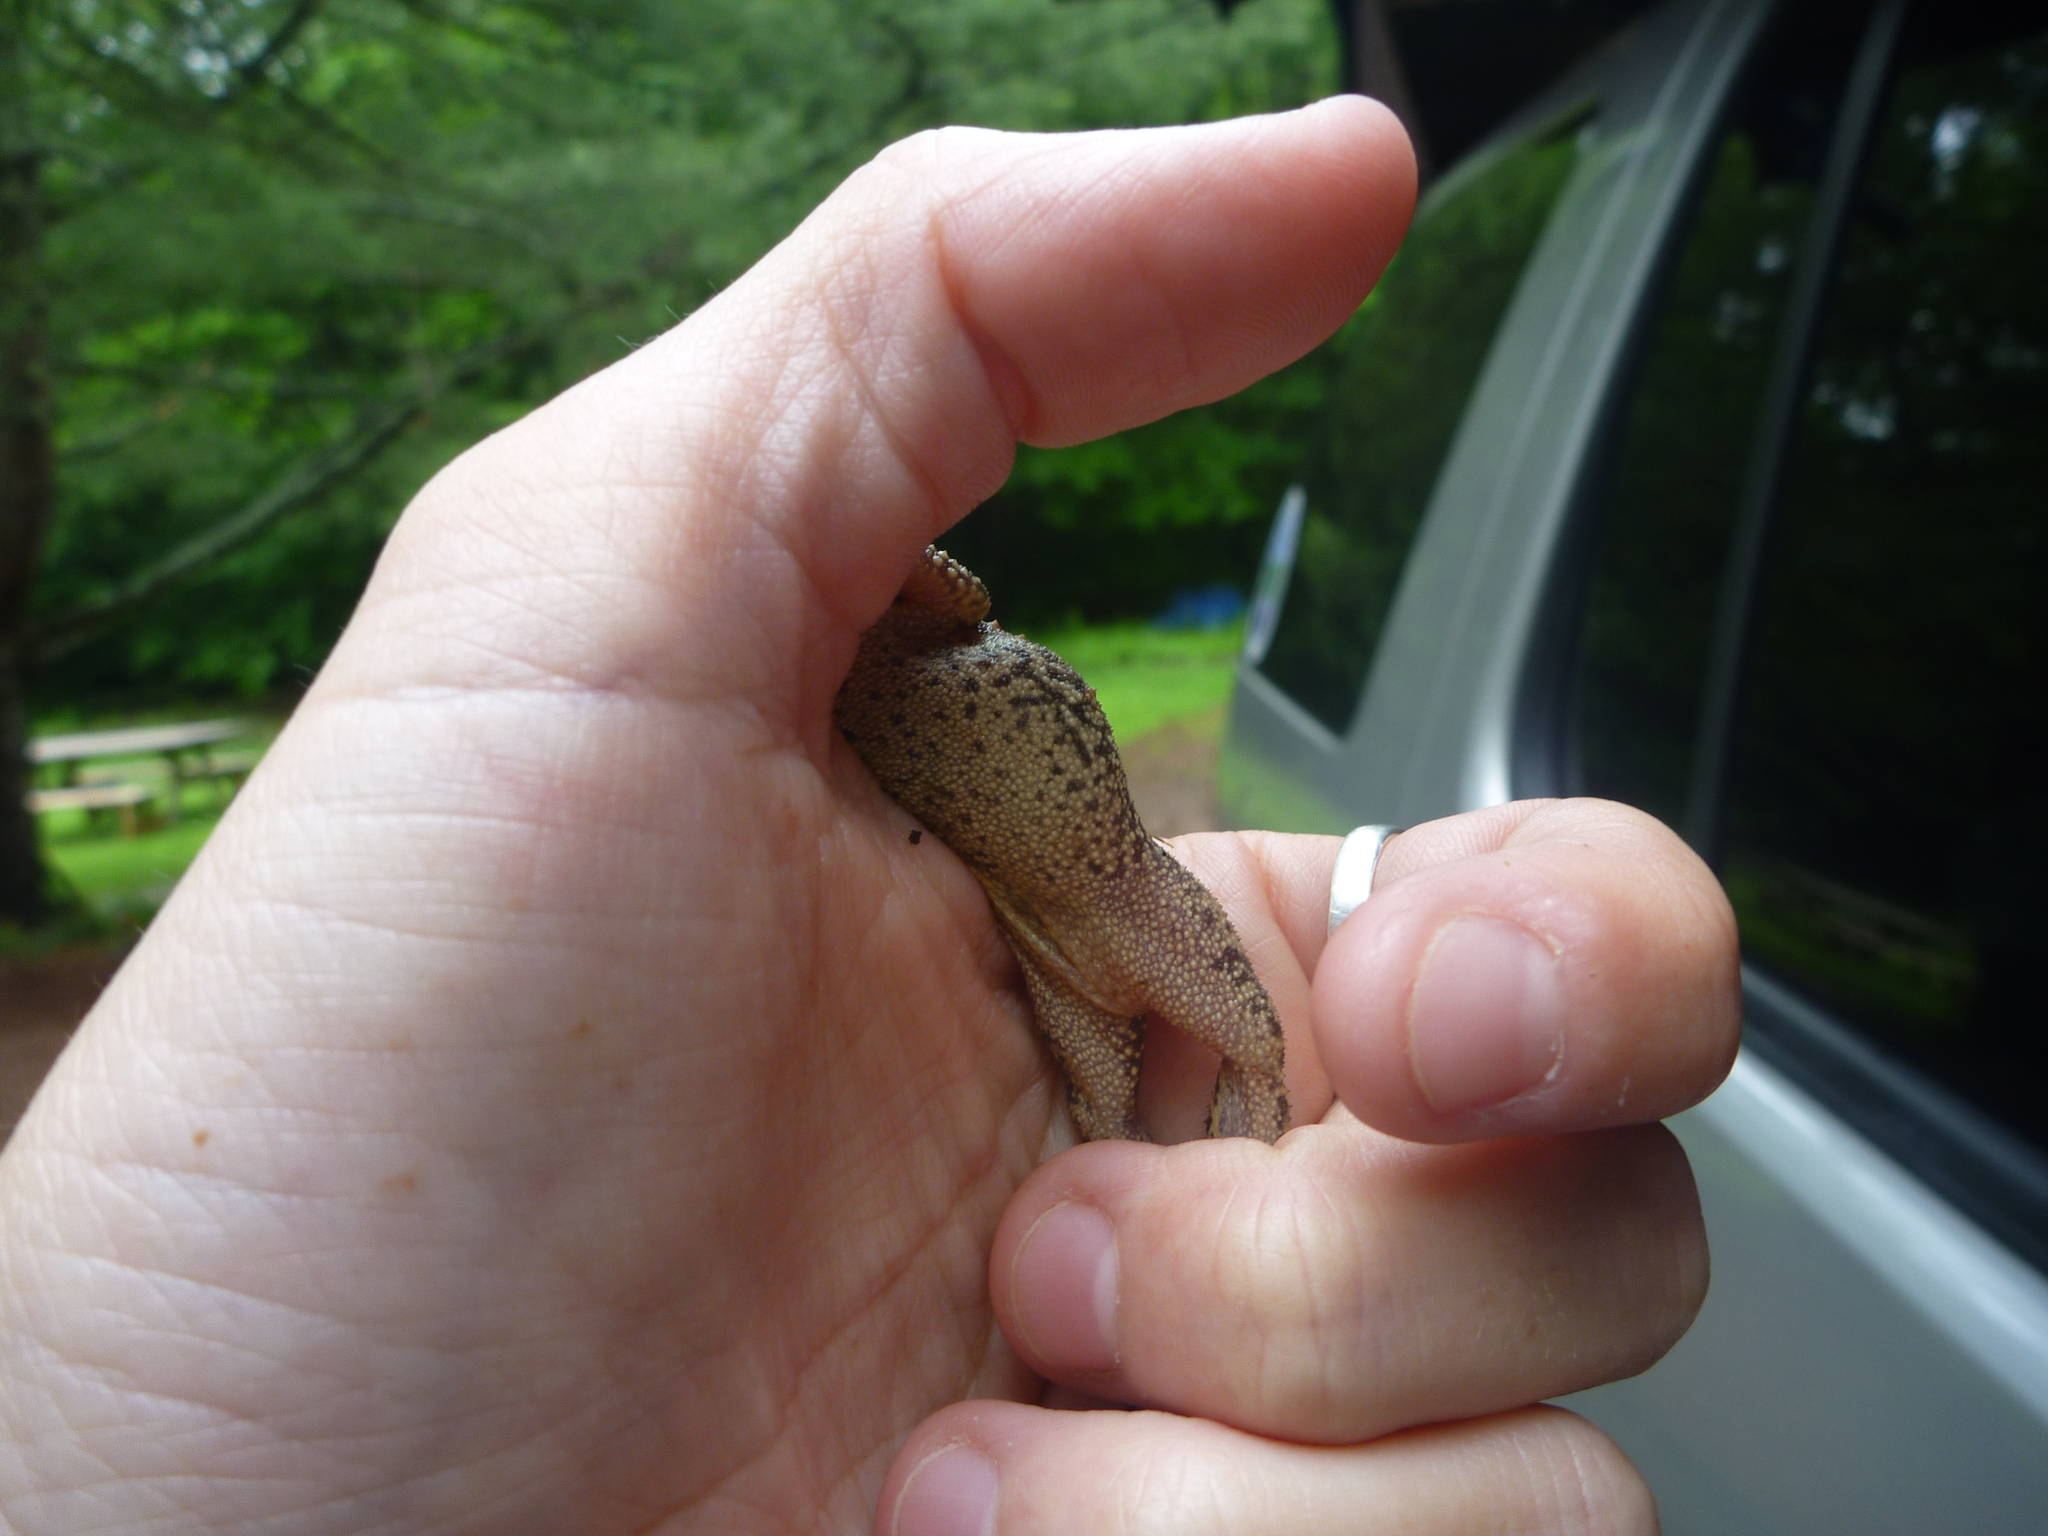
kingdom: Animalia
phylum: Chordata
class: Amphibia
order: Anura
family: Bufonidae
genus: Anaxyrus
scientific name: Anaxyrus americanus
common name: American toad
